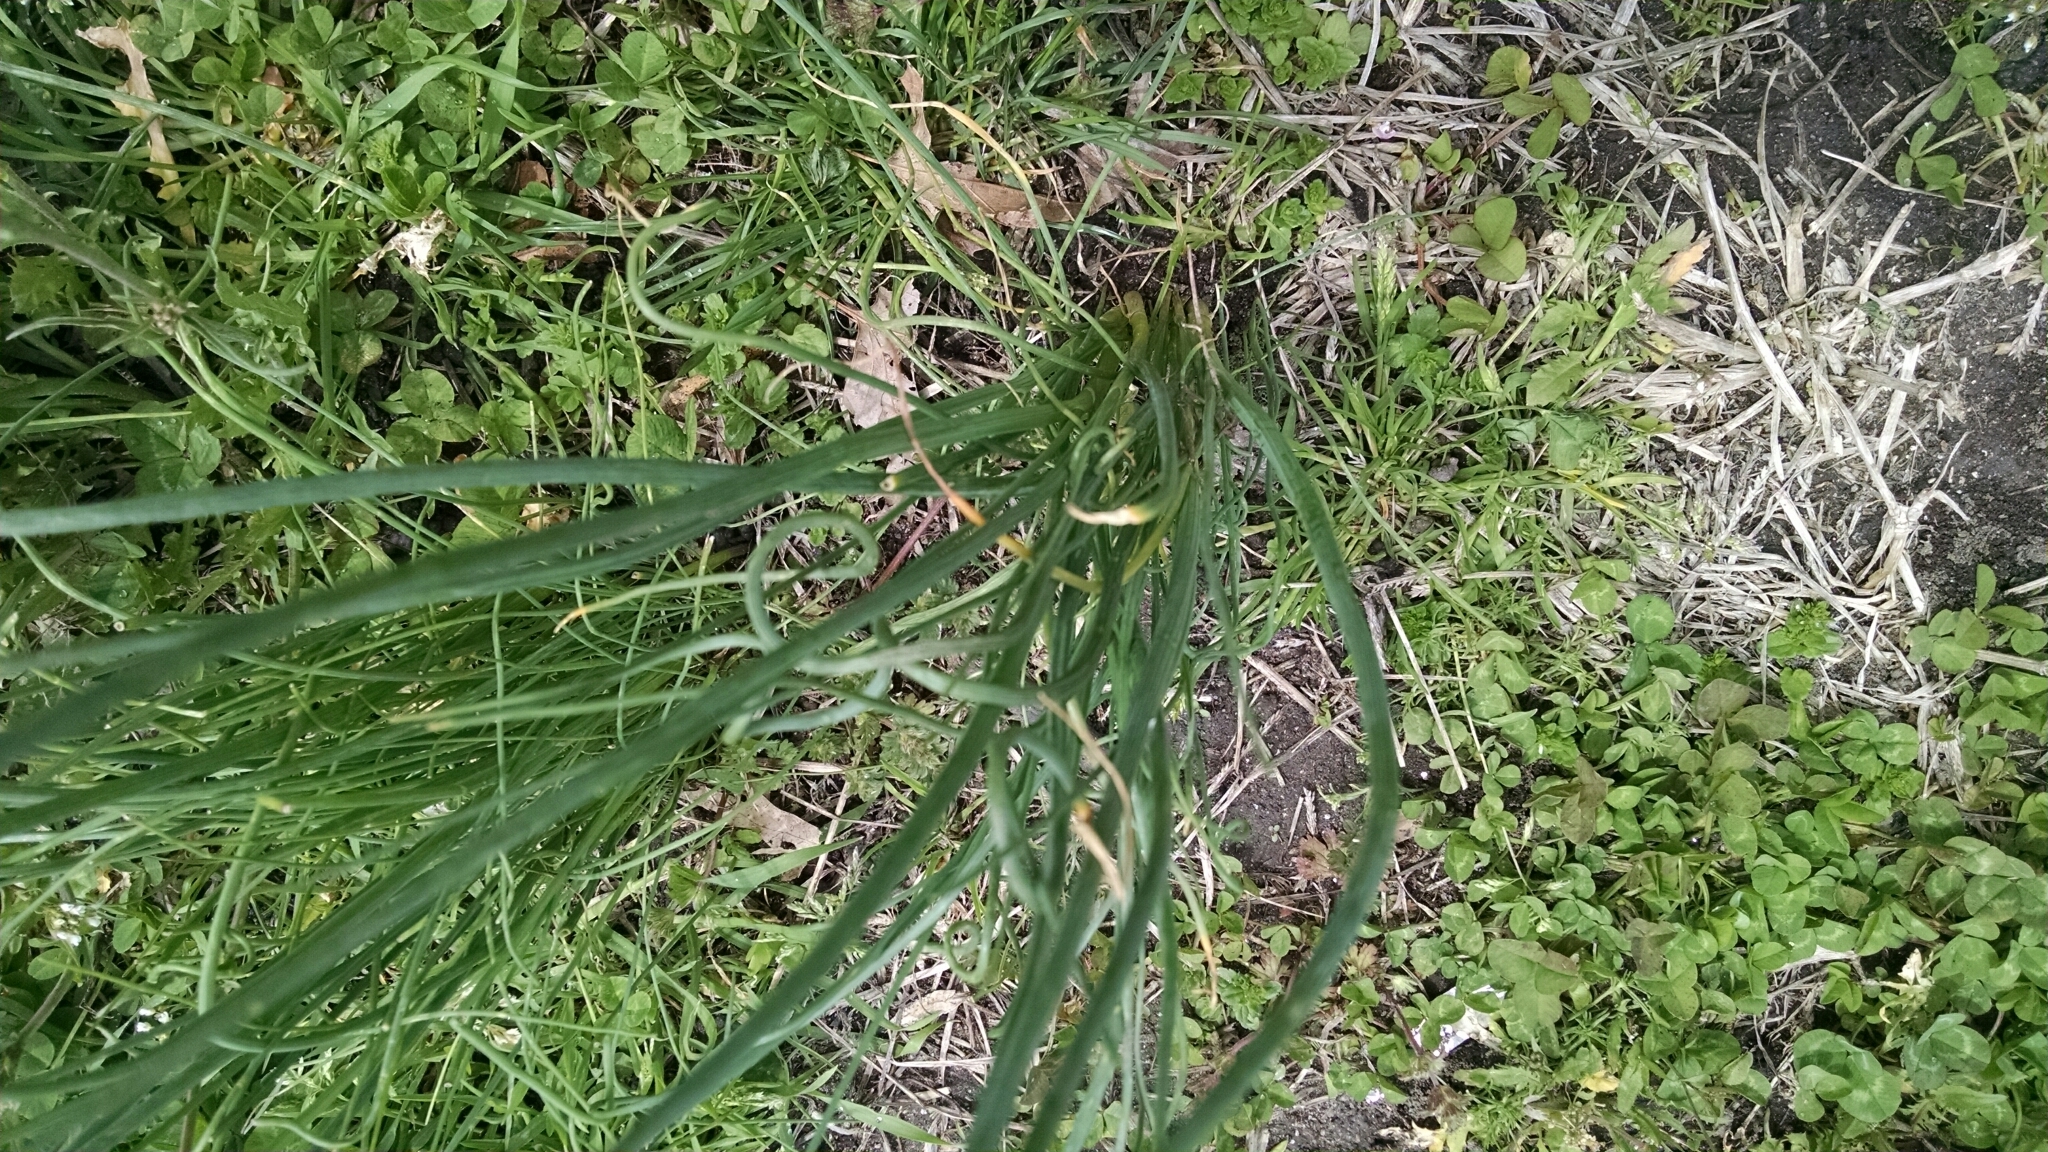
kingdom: Plantae
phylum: Tracheophyta
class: Liliopsida
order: Asparagales
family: Amaryllidaceae
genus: Allium
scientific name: Allium vineale
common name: Crow garlic
